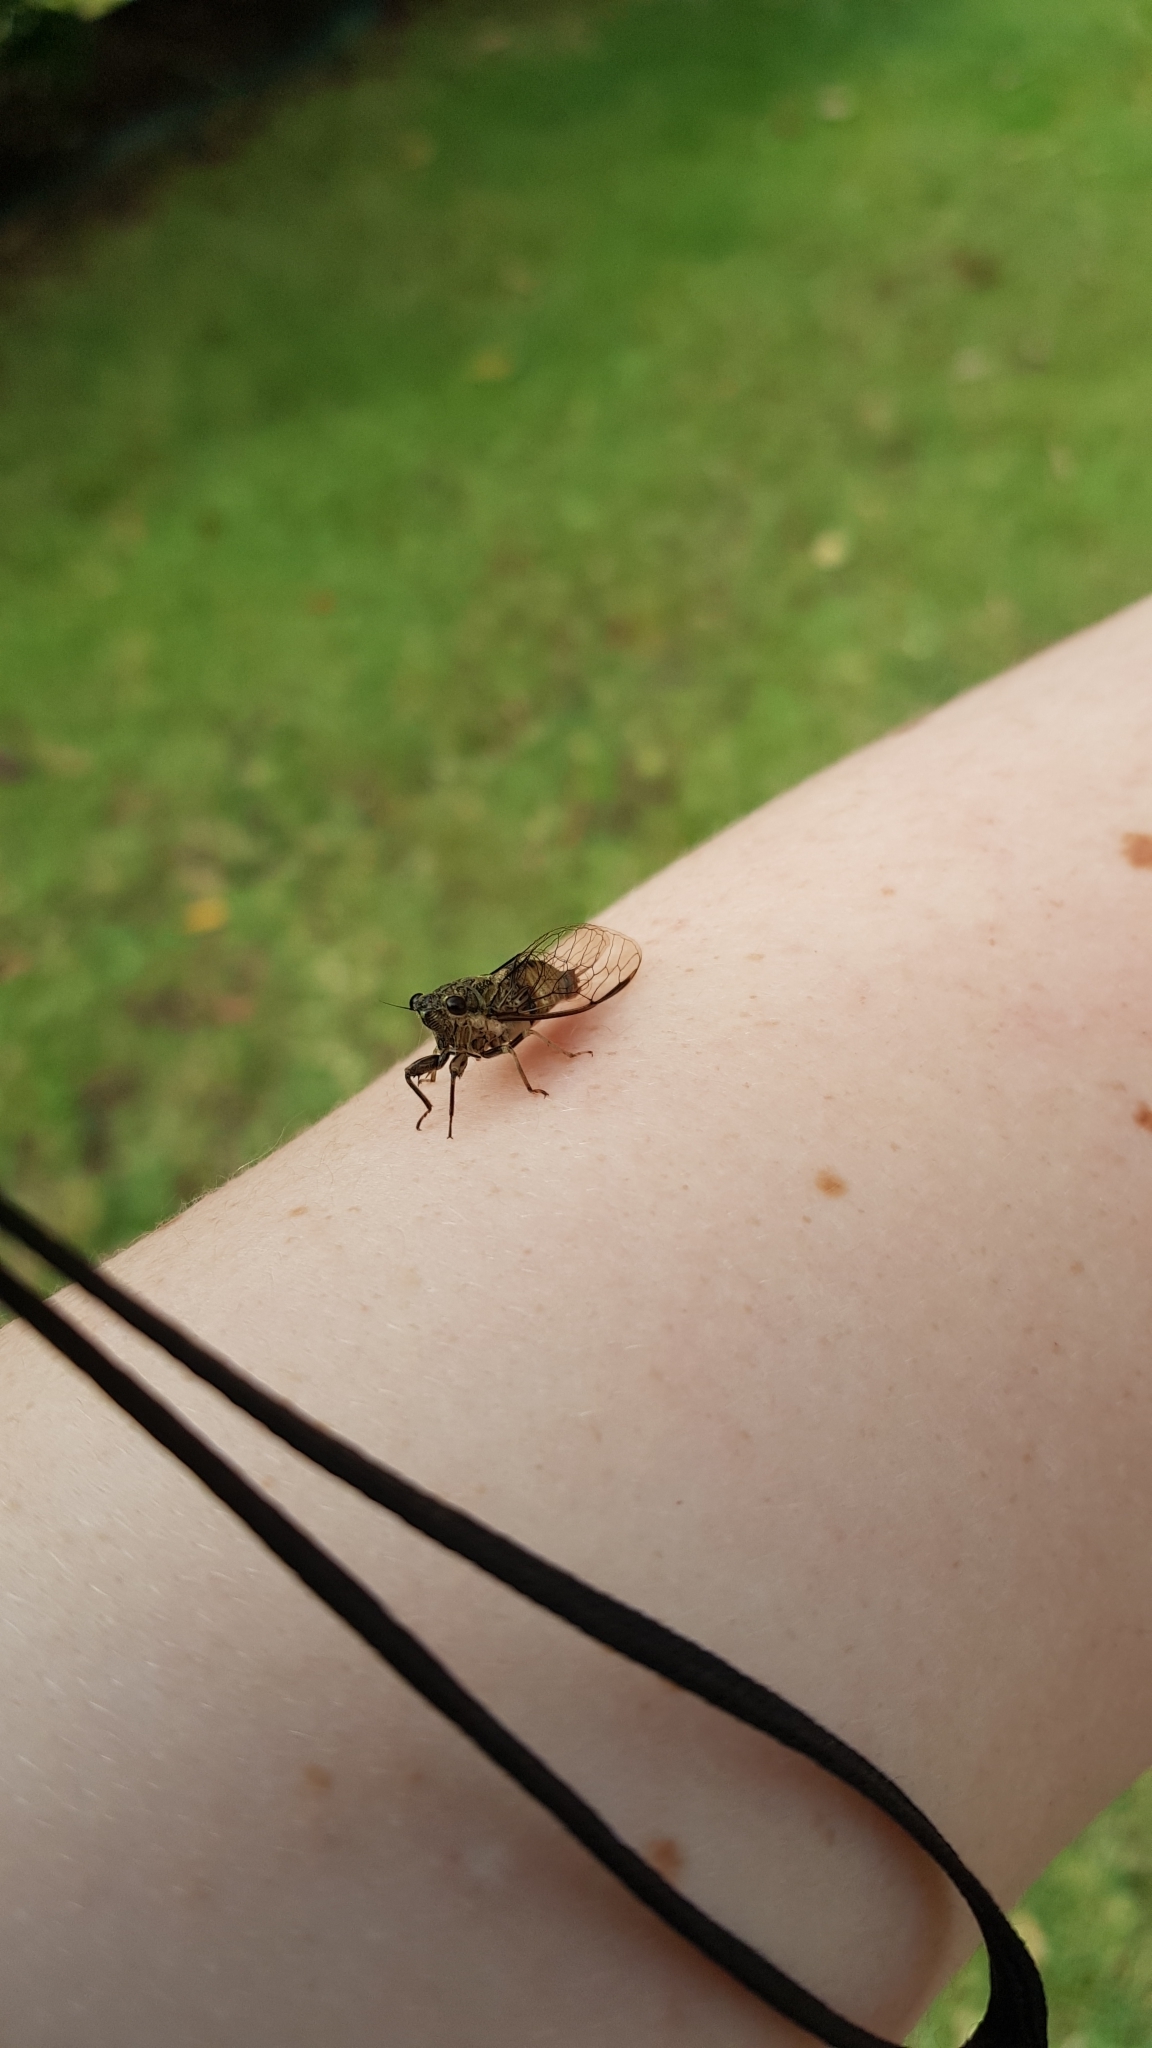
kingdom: Animalia
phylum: Arthropoda
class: Insecta
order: Hemiptera
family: Cicadidae
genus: Yoyetta
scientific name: Yoyetta celis
